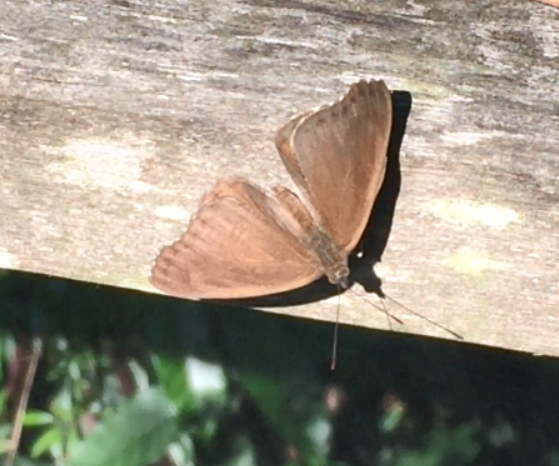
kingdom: Animalia
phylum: Arthropoda
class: Insecta
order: Lepidoptera
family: Nymphalidae
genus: Asterope
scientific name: Asterope boisduvali
